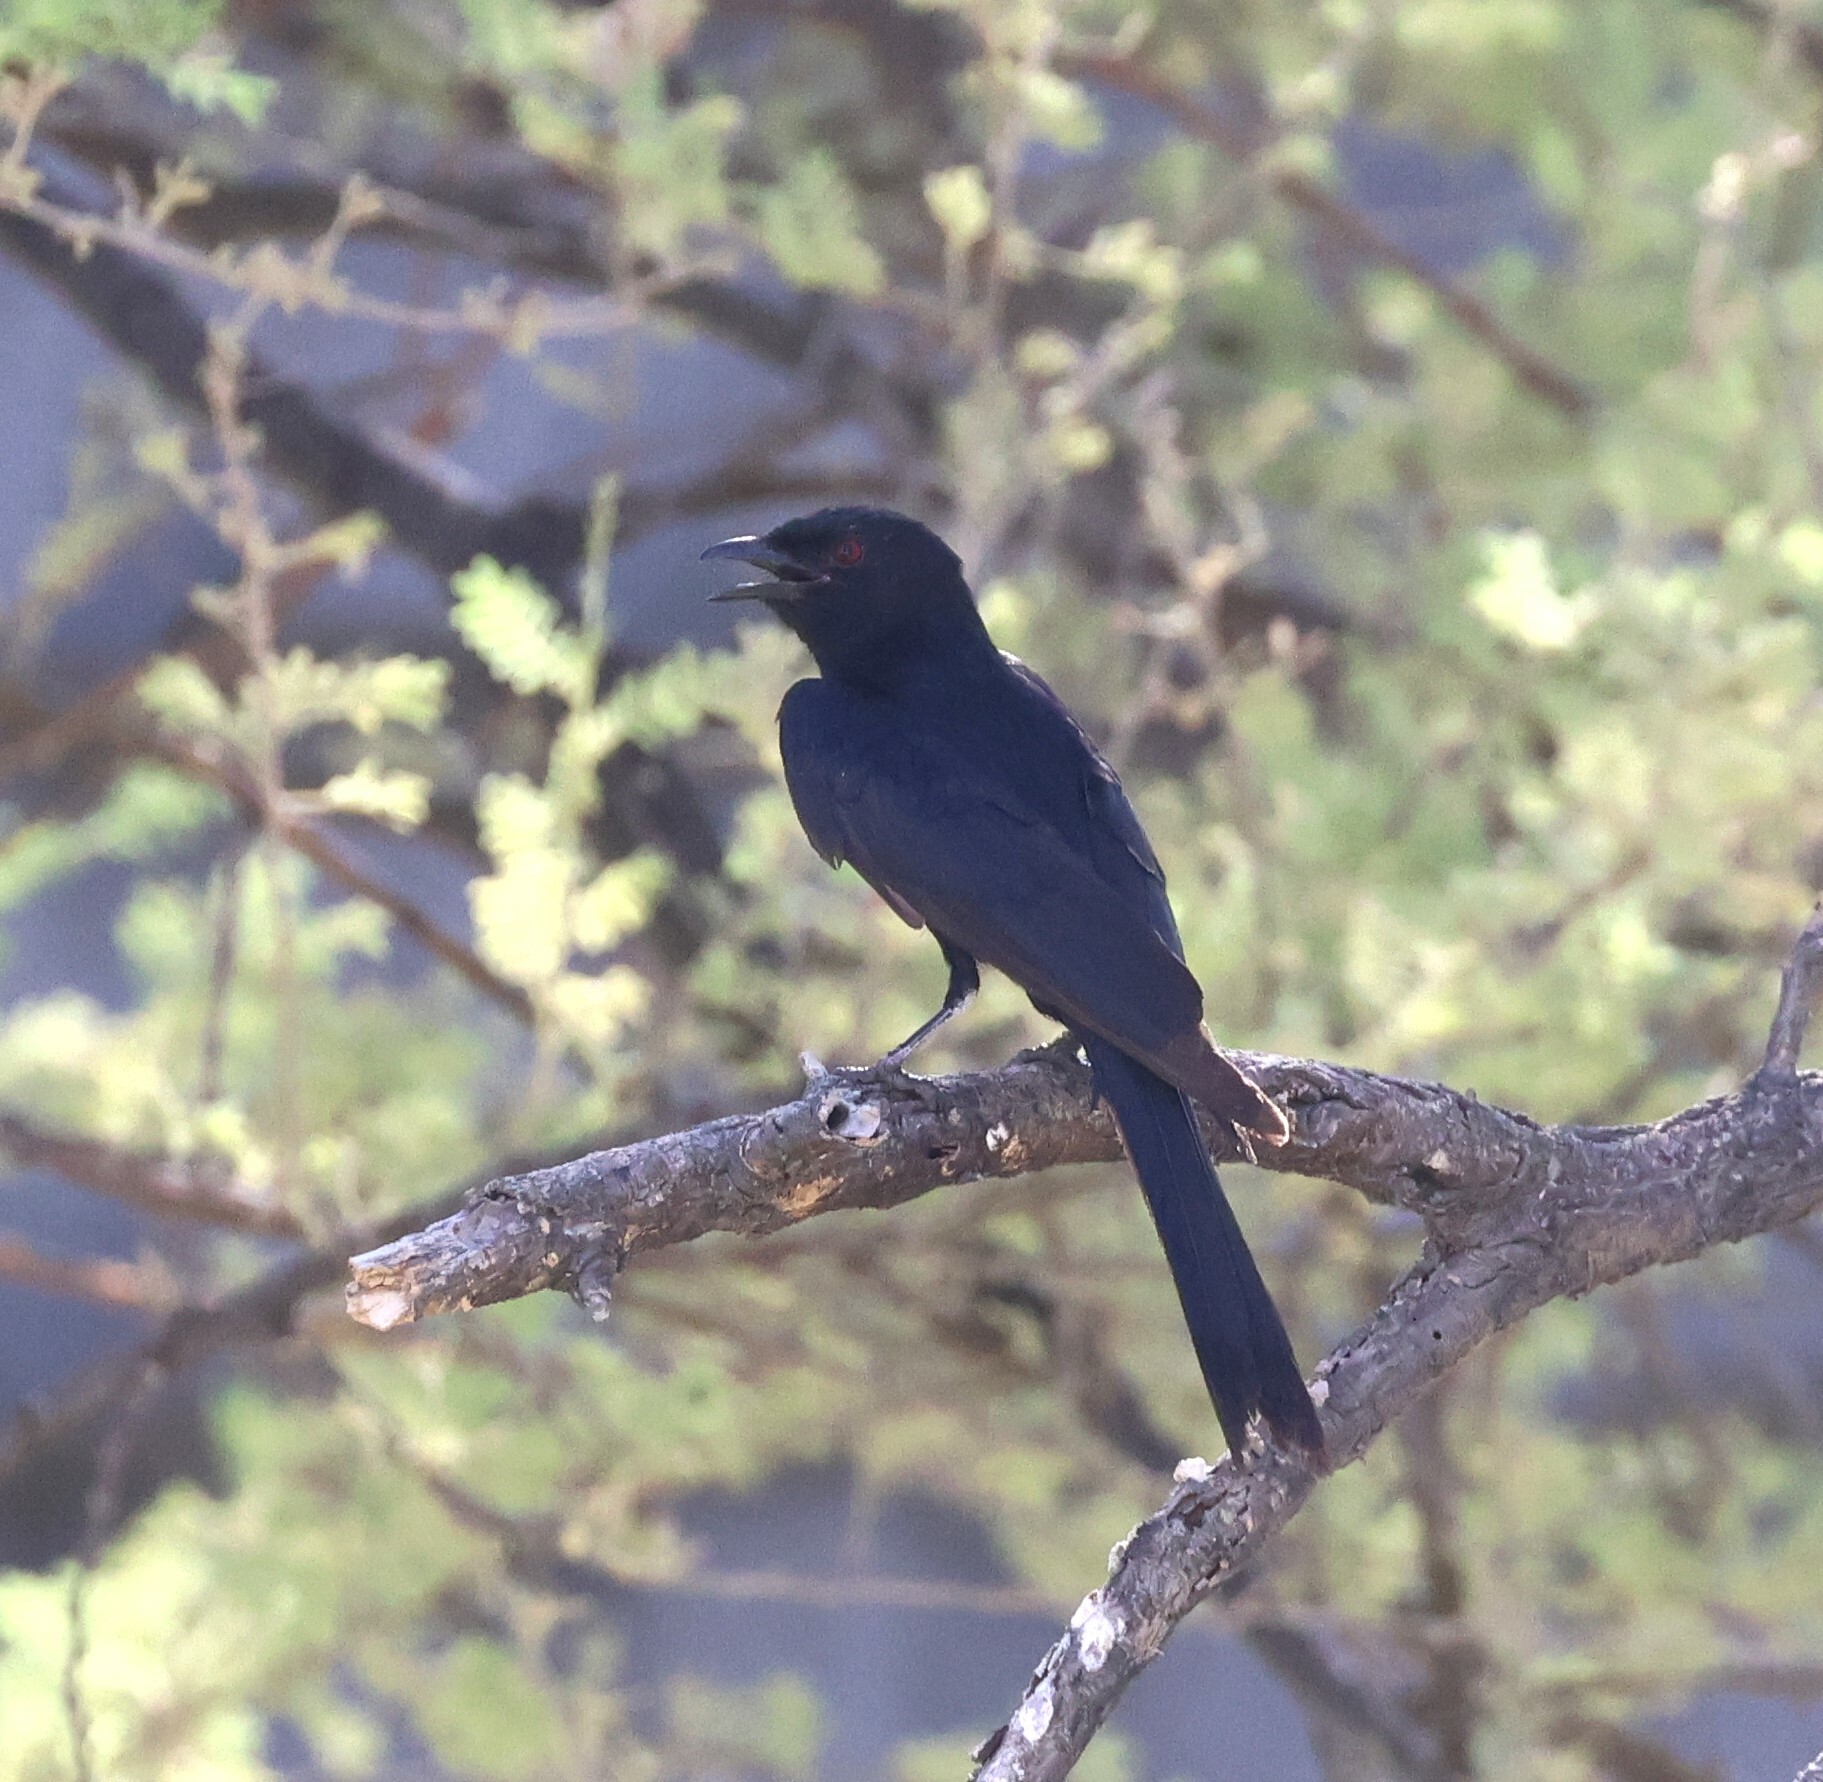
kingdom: Animalia
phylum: Chordata
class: Aves
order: Passeriformes
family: Dicruridae
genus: Dicrurus
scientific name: Dicrurus adsimilis
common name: Fork-tailed drongo
